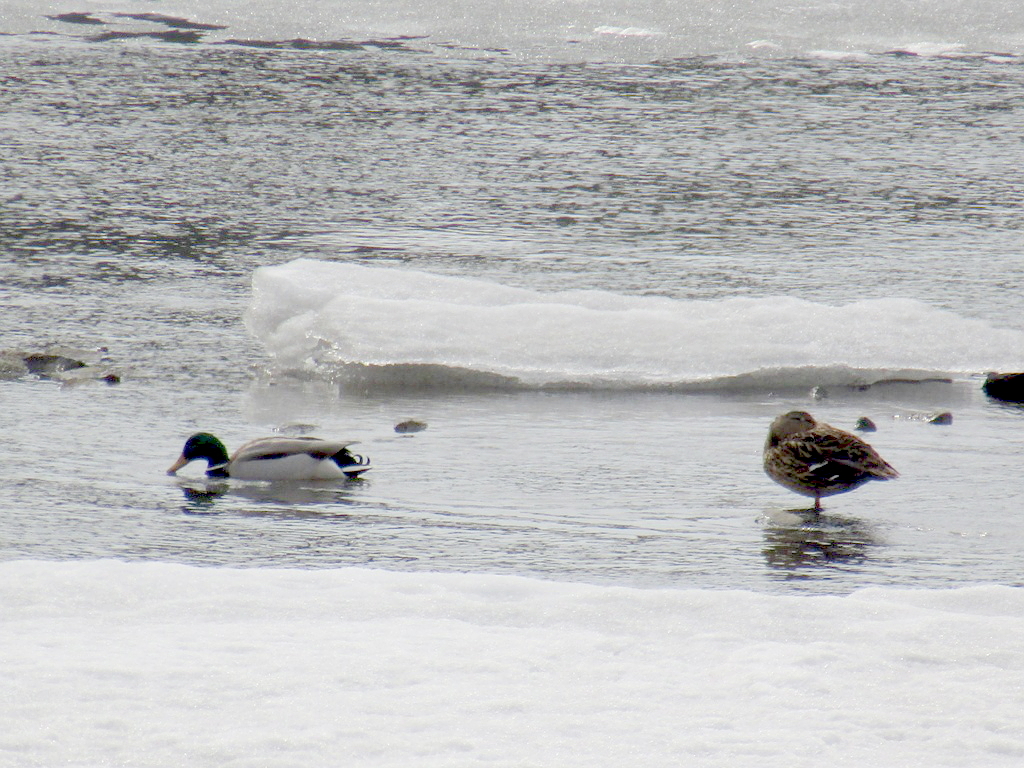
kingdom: Animalia
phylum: Chordata
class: Aves
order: Anseriformes
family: Anatidae
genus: Anas
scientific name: Anas platyrhynchos
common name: Mallard
